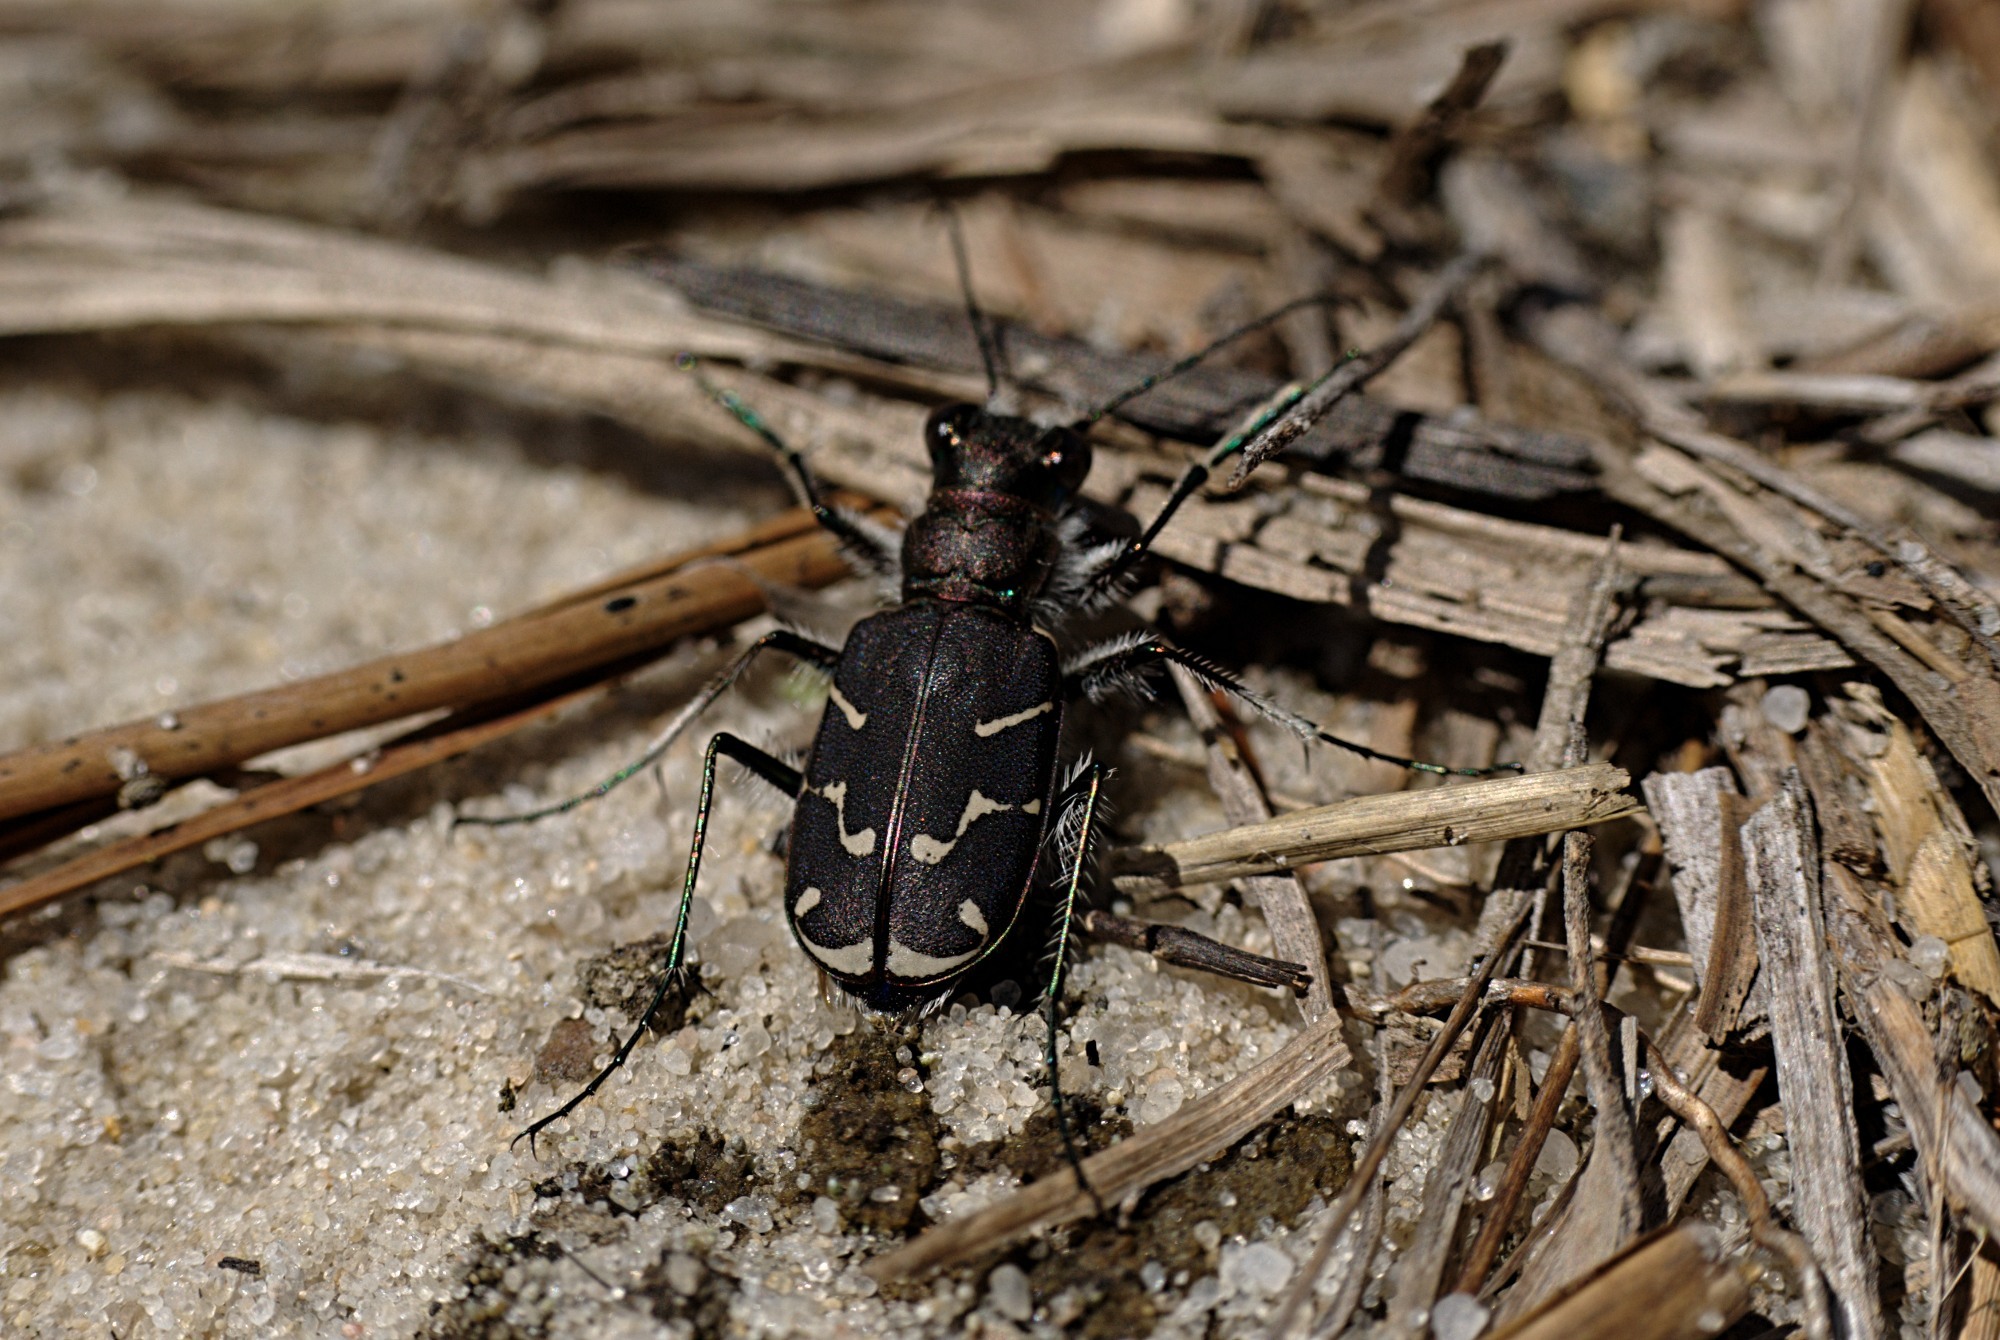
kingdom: Animalia
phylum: Arthropoda
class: Insecta
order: Coleoptera
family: Carabidae
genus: Cicindela
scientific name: Cicindela tranquebarica
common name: Oblique-lined tiger beetle
